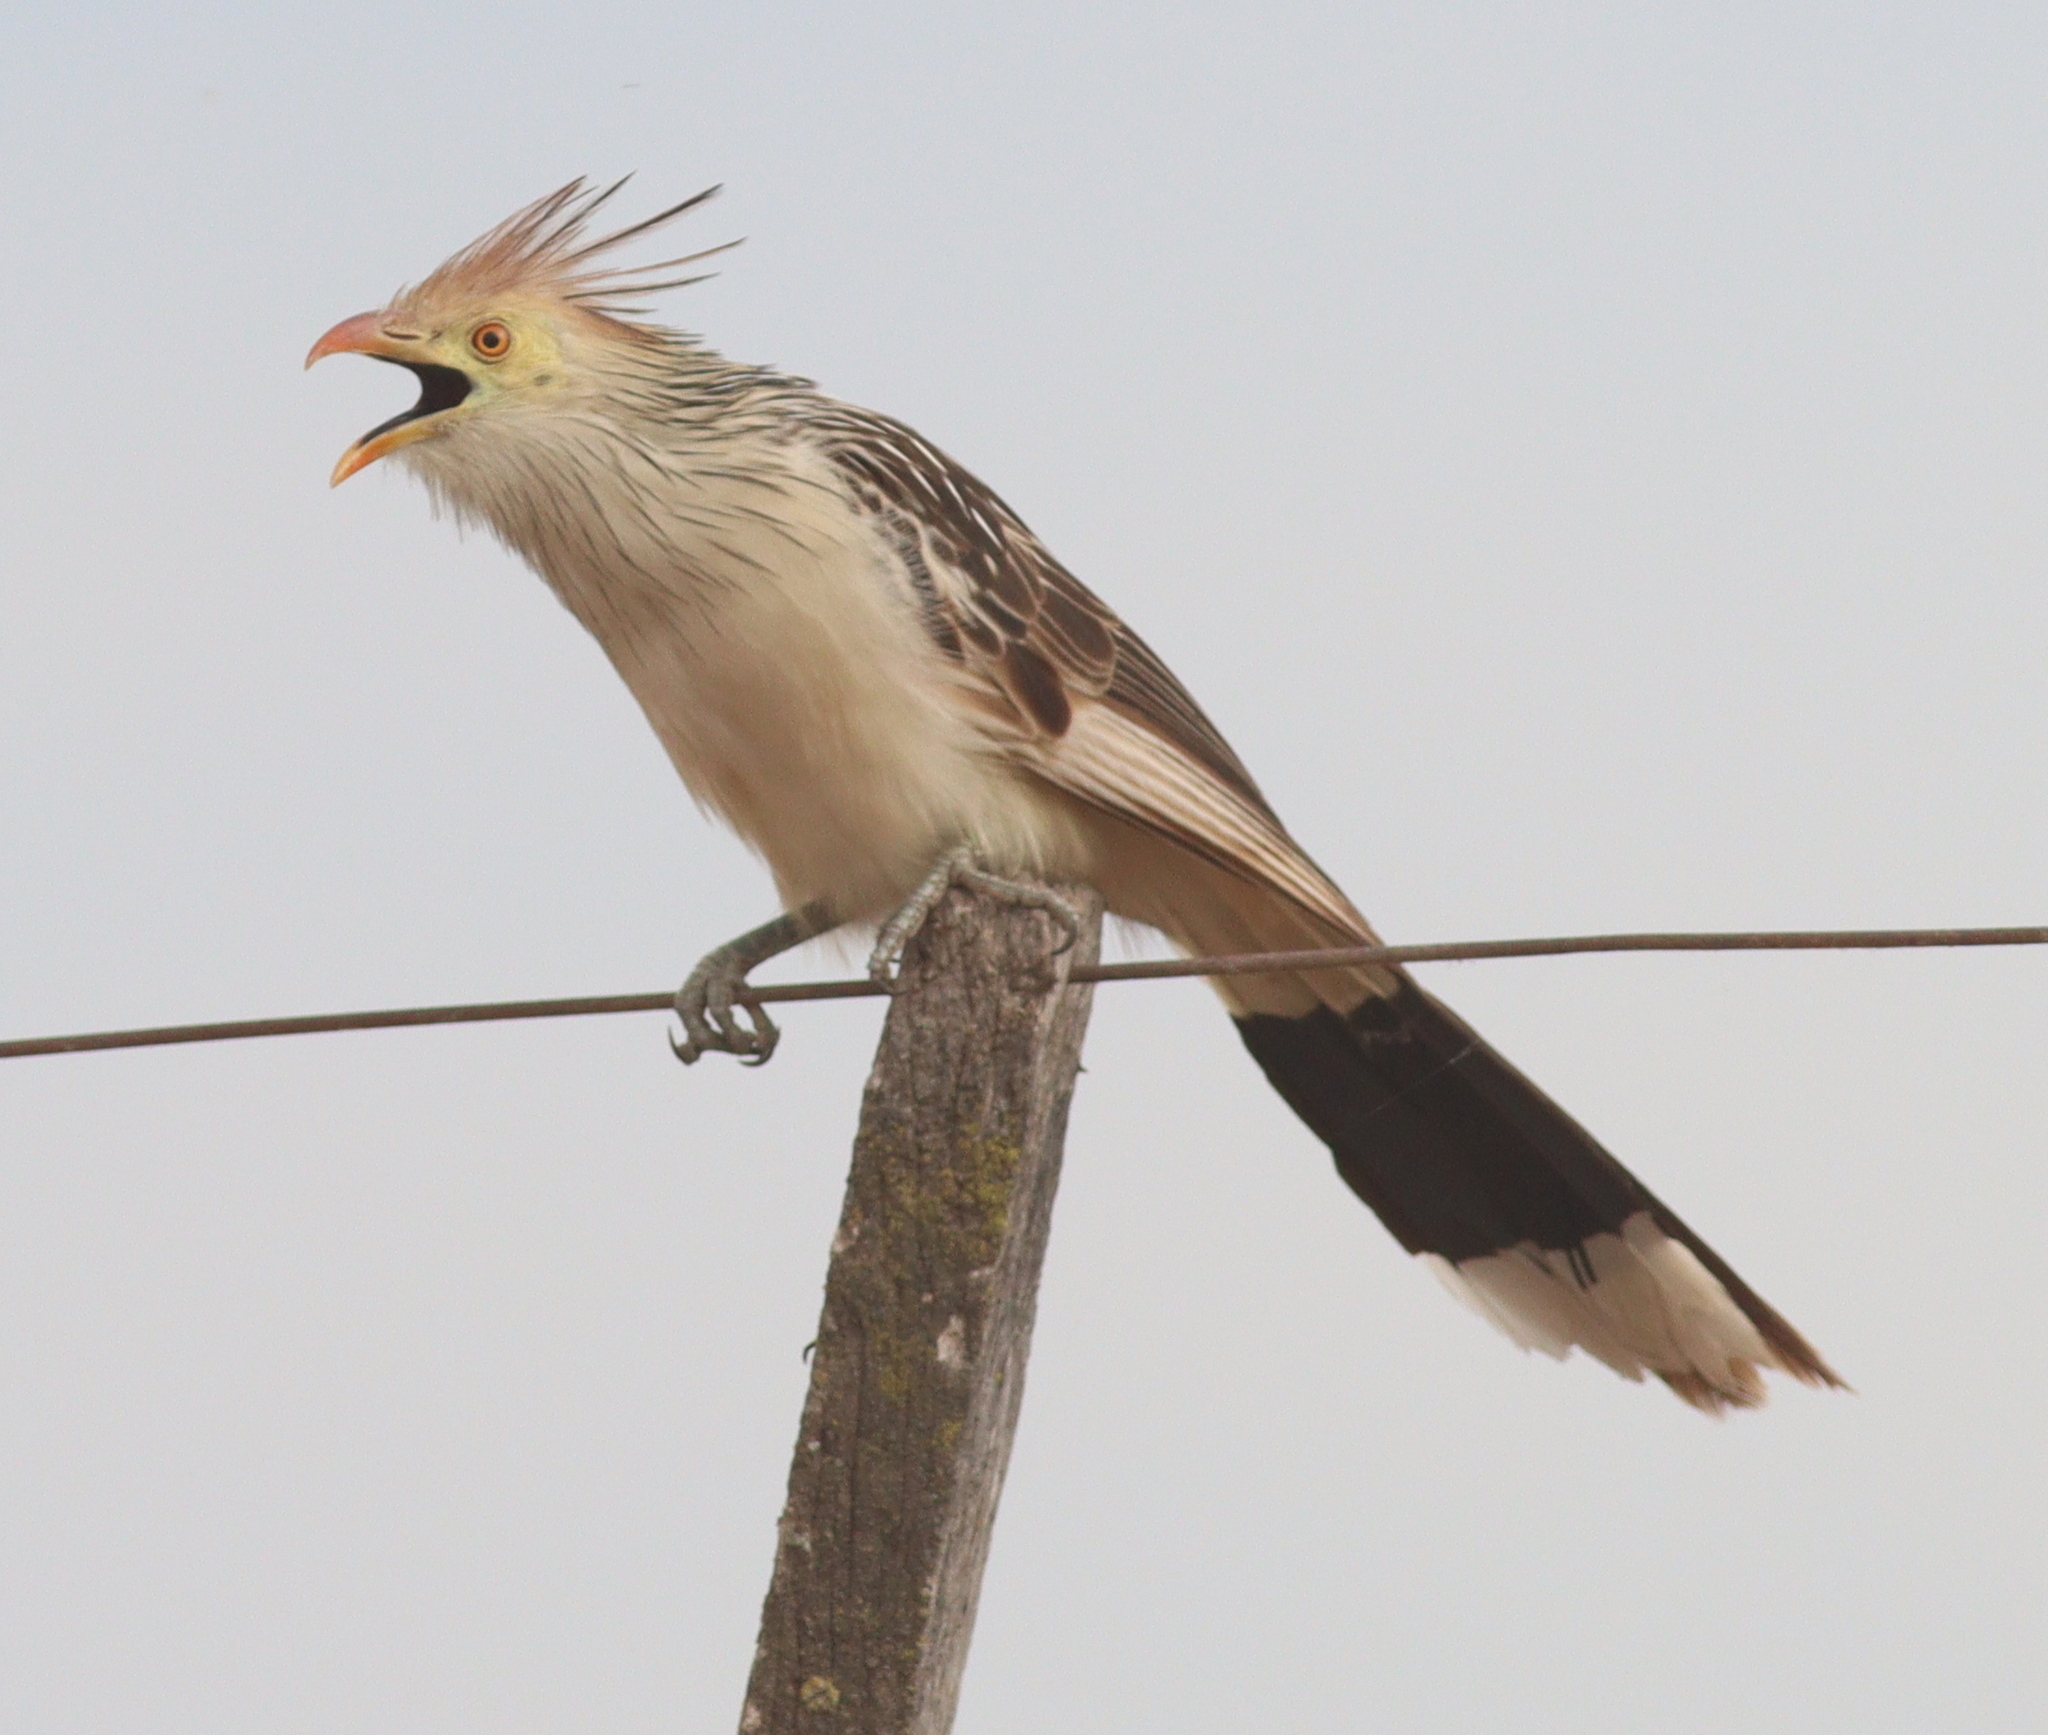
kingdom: Animalia
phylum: Chordata
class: Aves
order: Cuculiformes
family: Cuculidae
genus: Guira
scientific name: Guira guira
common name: Guira cuckoo
